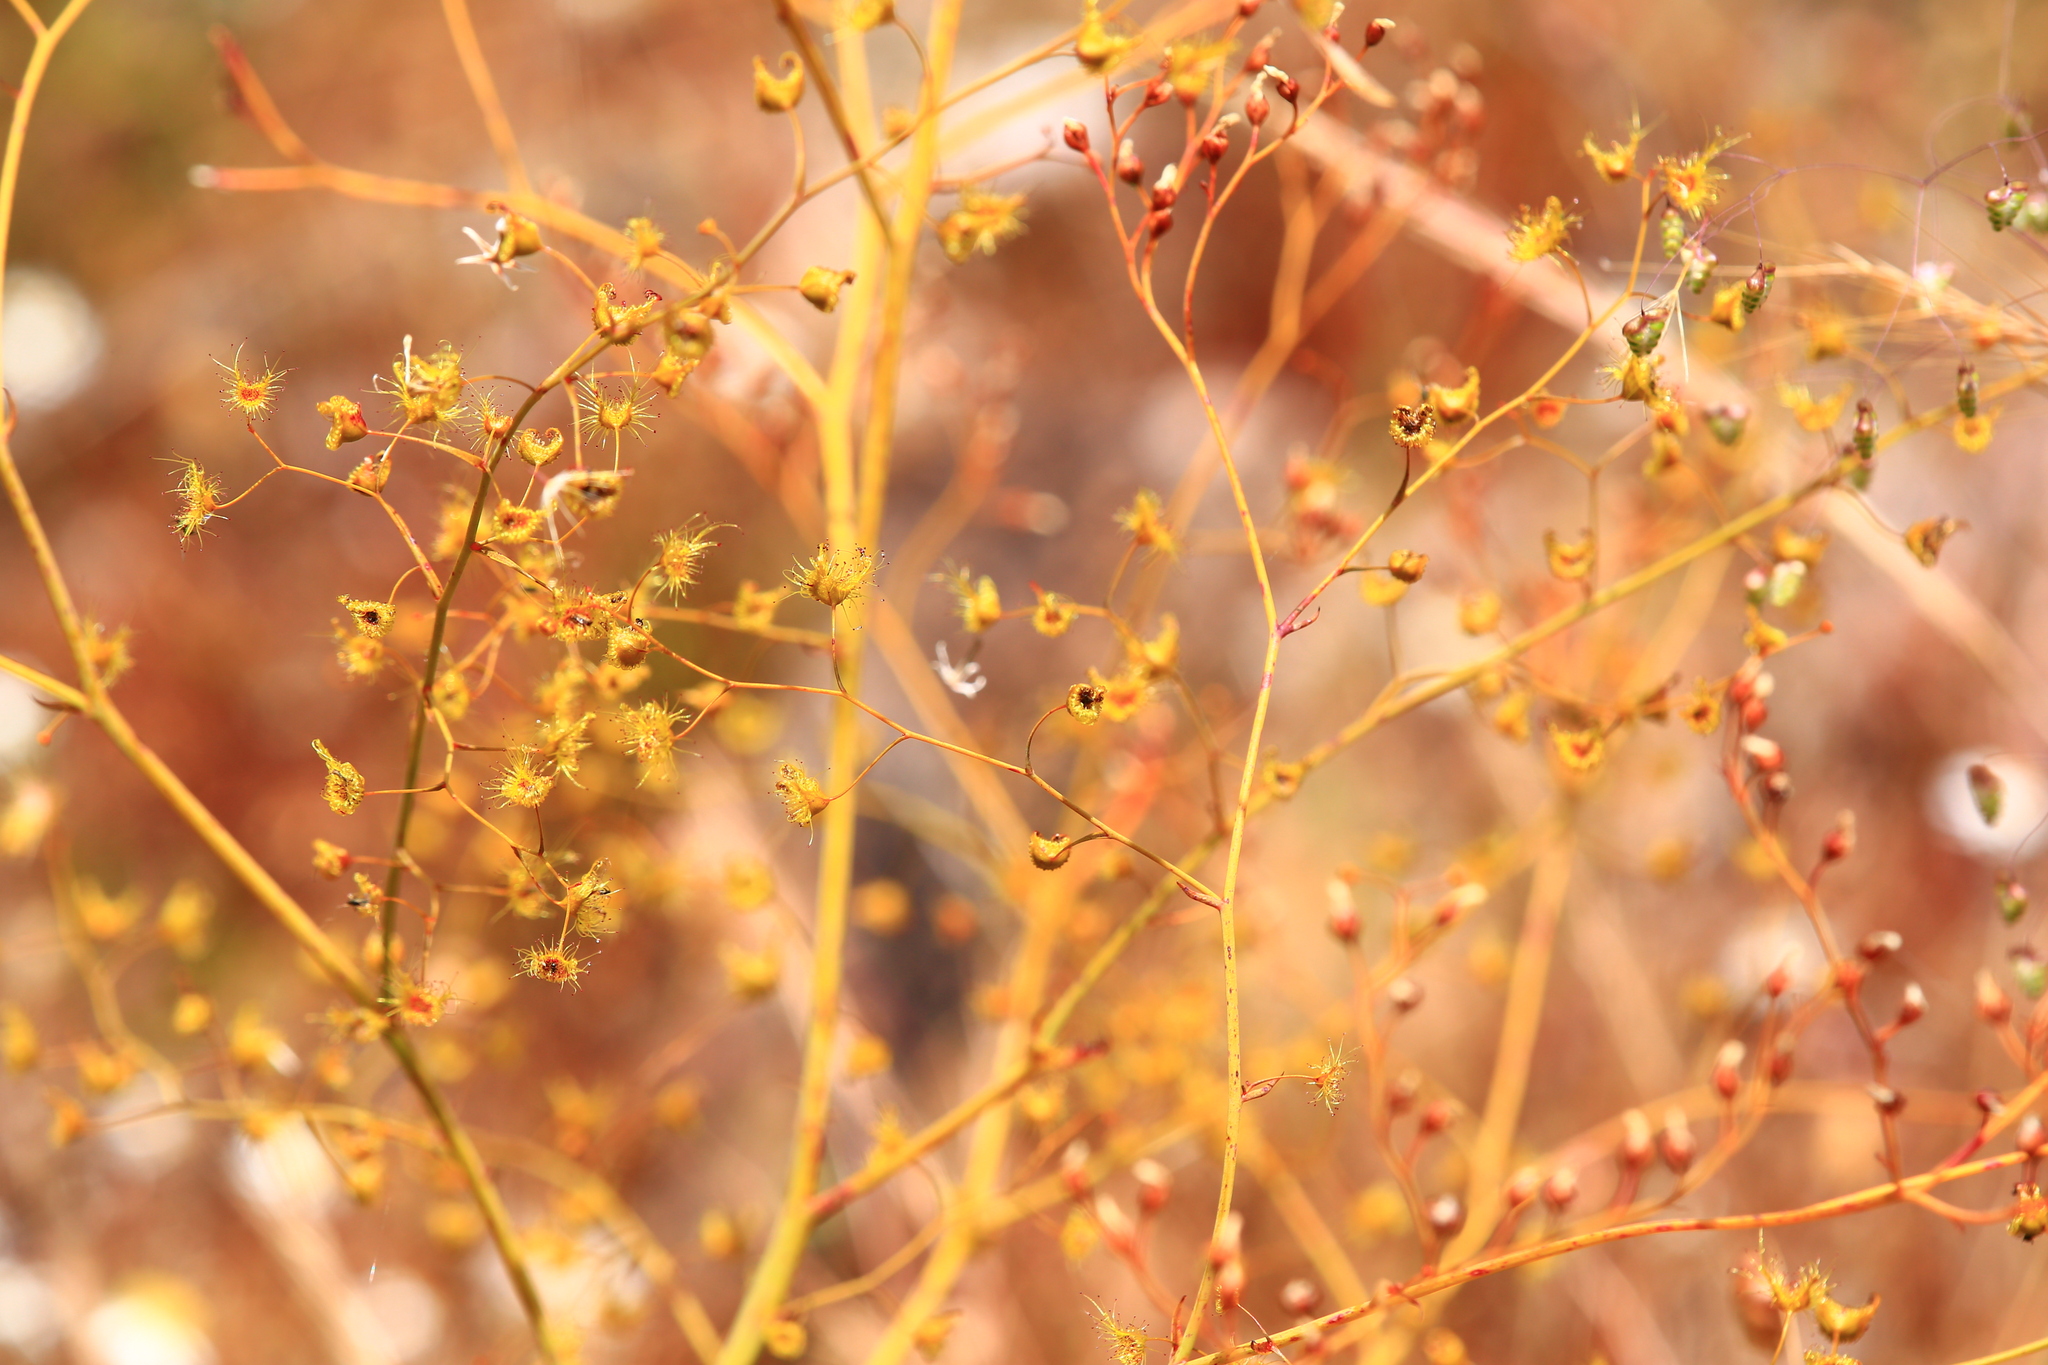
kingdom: Plantae
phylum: Tracheophyta
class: Magnoliopsida
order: Caryophyllales
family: Droseraceae
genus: Drosera
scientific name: Drosera gigantea
